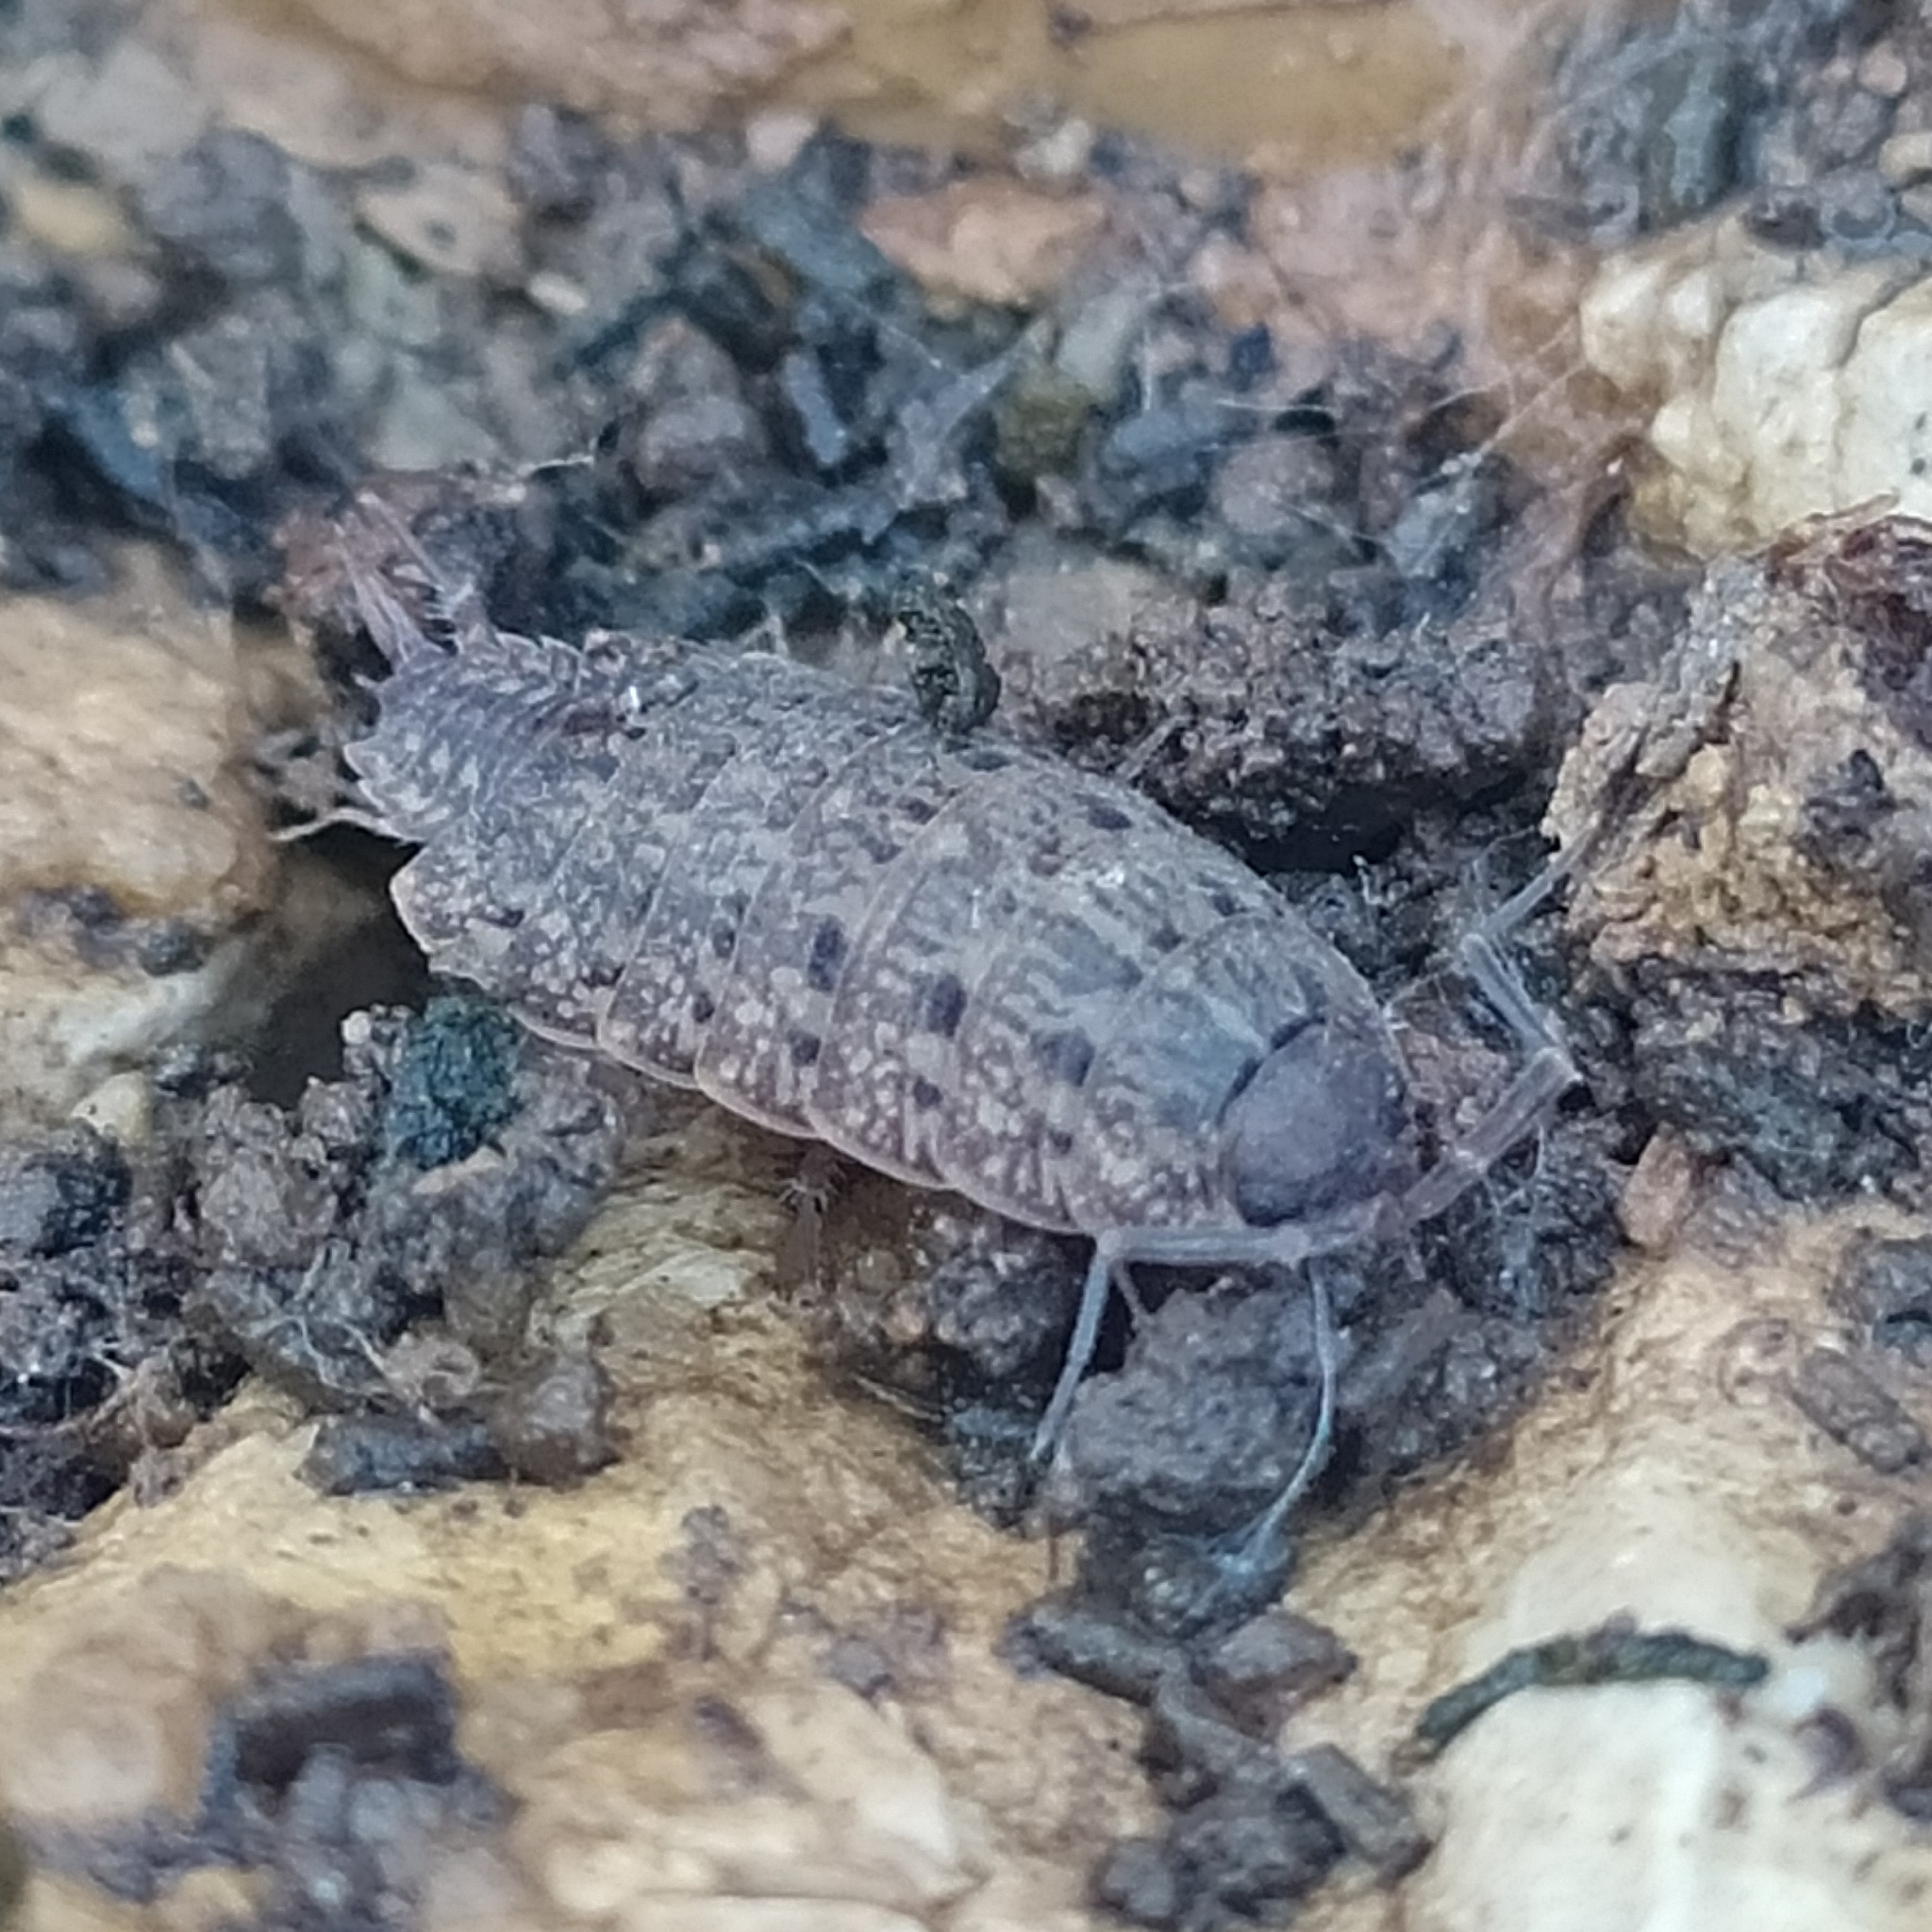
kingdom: Animalia
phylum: Arthropoda
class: Malacostraca
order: Isopoda
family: Agnaridae
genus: Orthometopon
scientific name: Orthometopon dalmatinum
